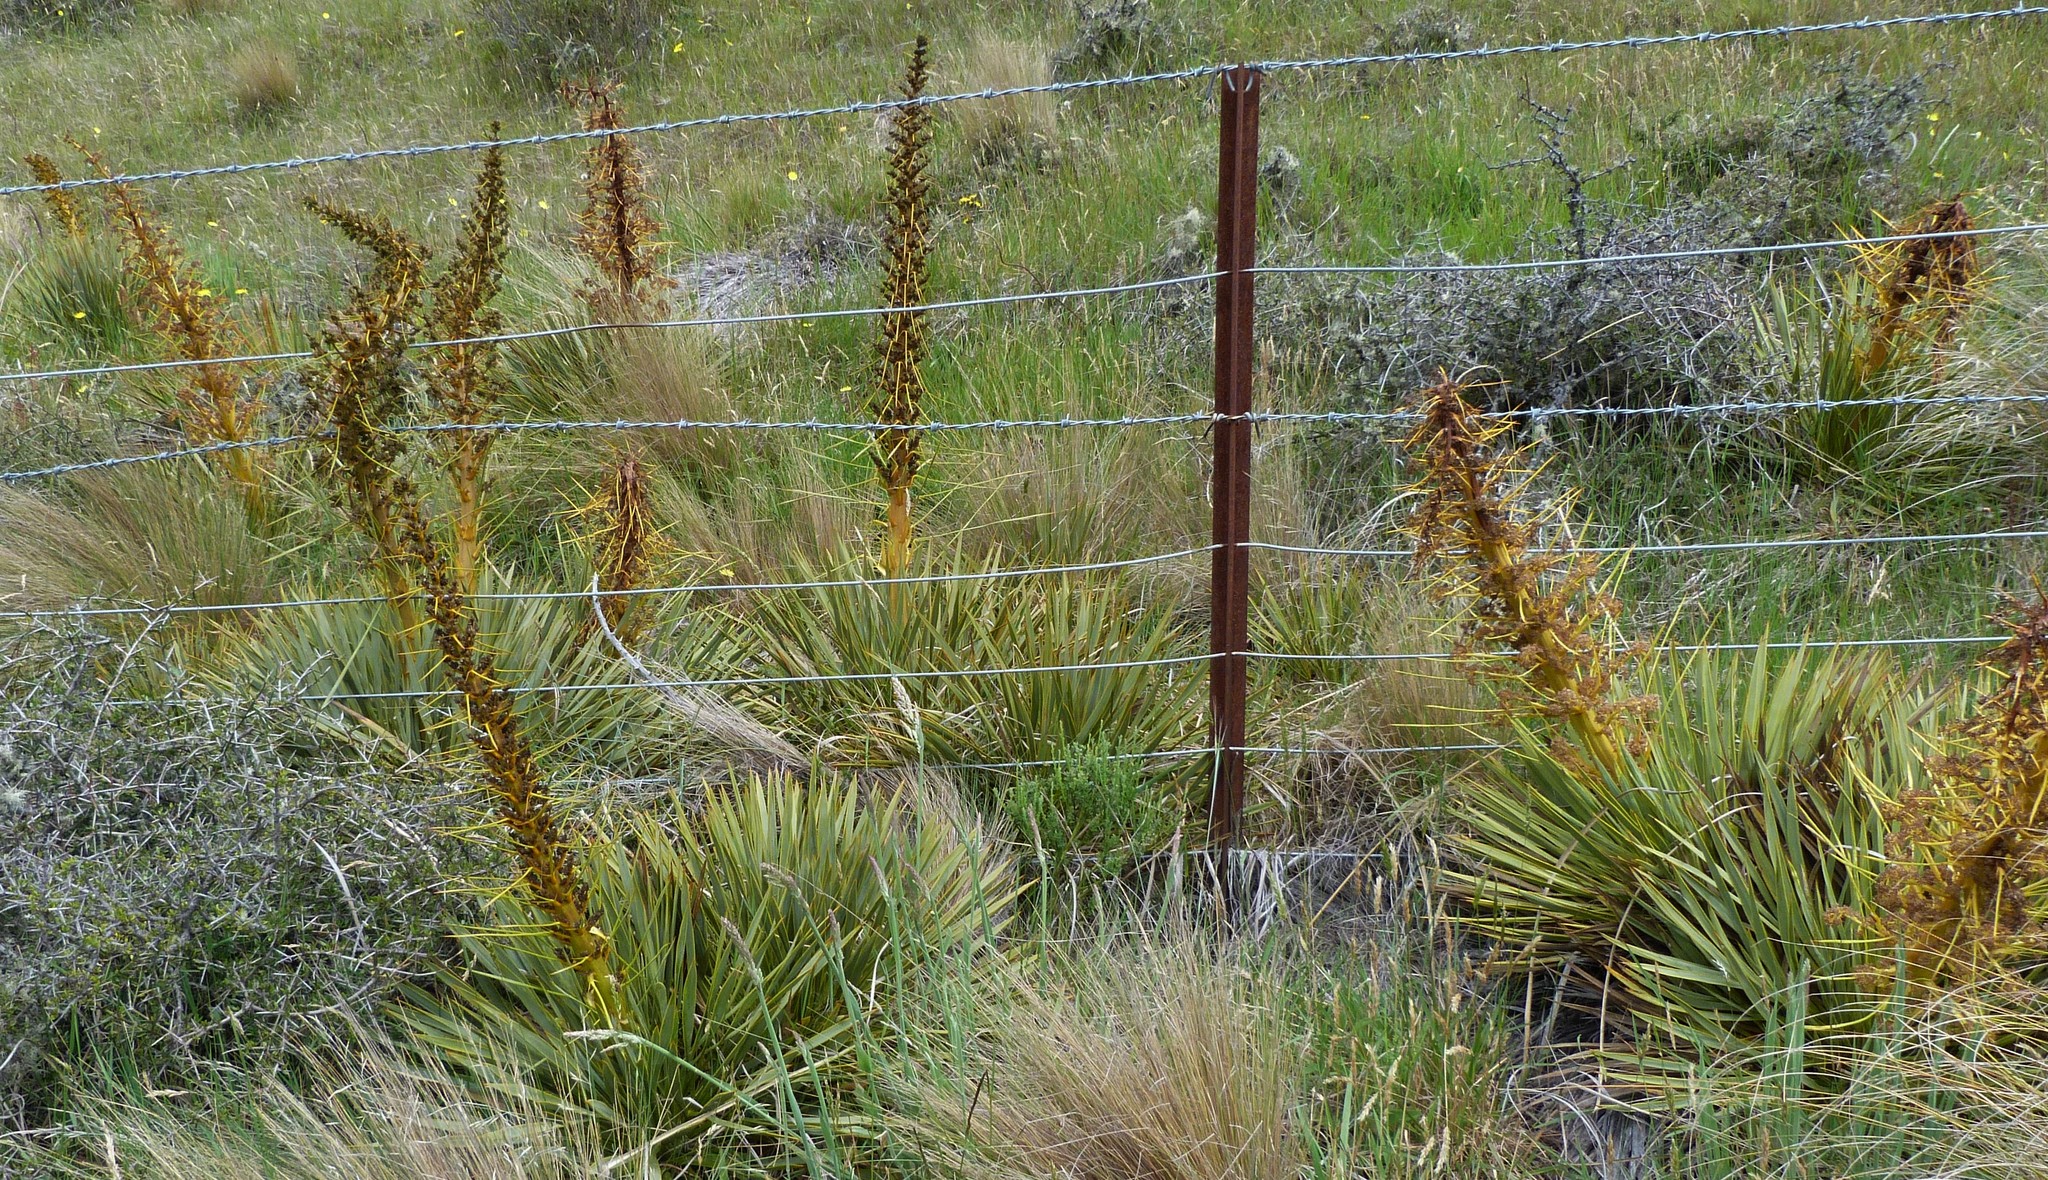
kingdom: Plantae
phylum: Tracheophyta
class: Magnoliopsida
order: Apiales
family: Apiaceae
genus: Aciphylla
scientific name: Aciphylla aurea
